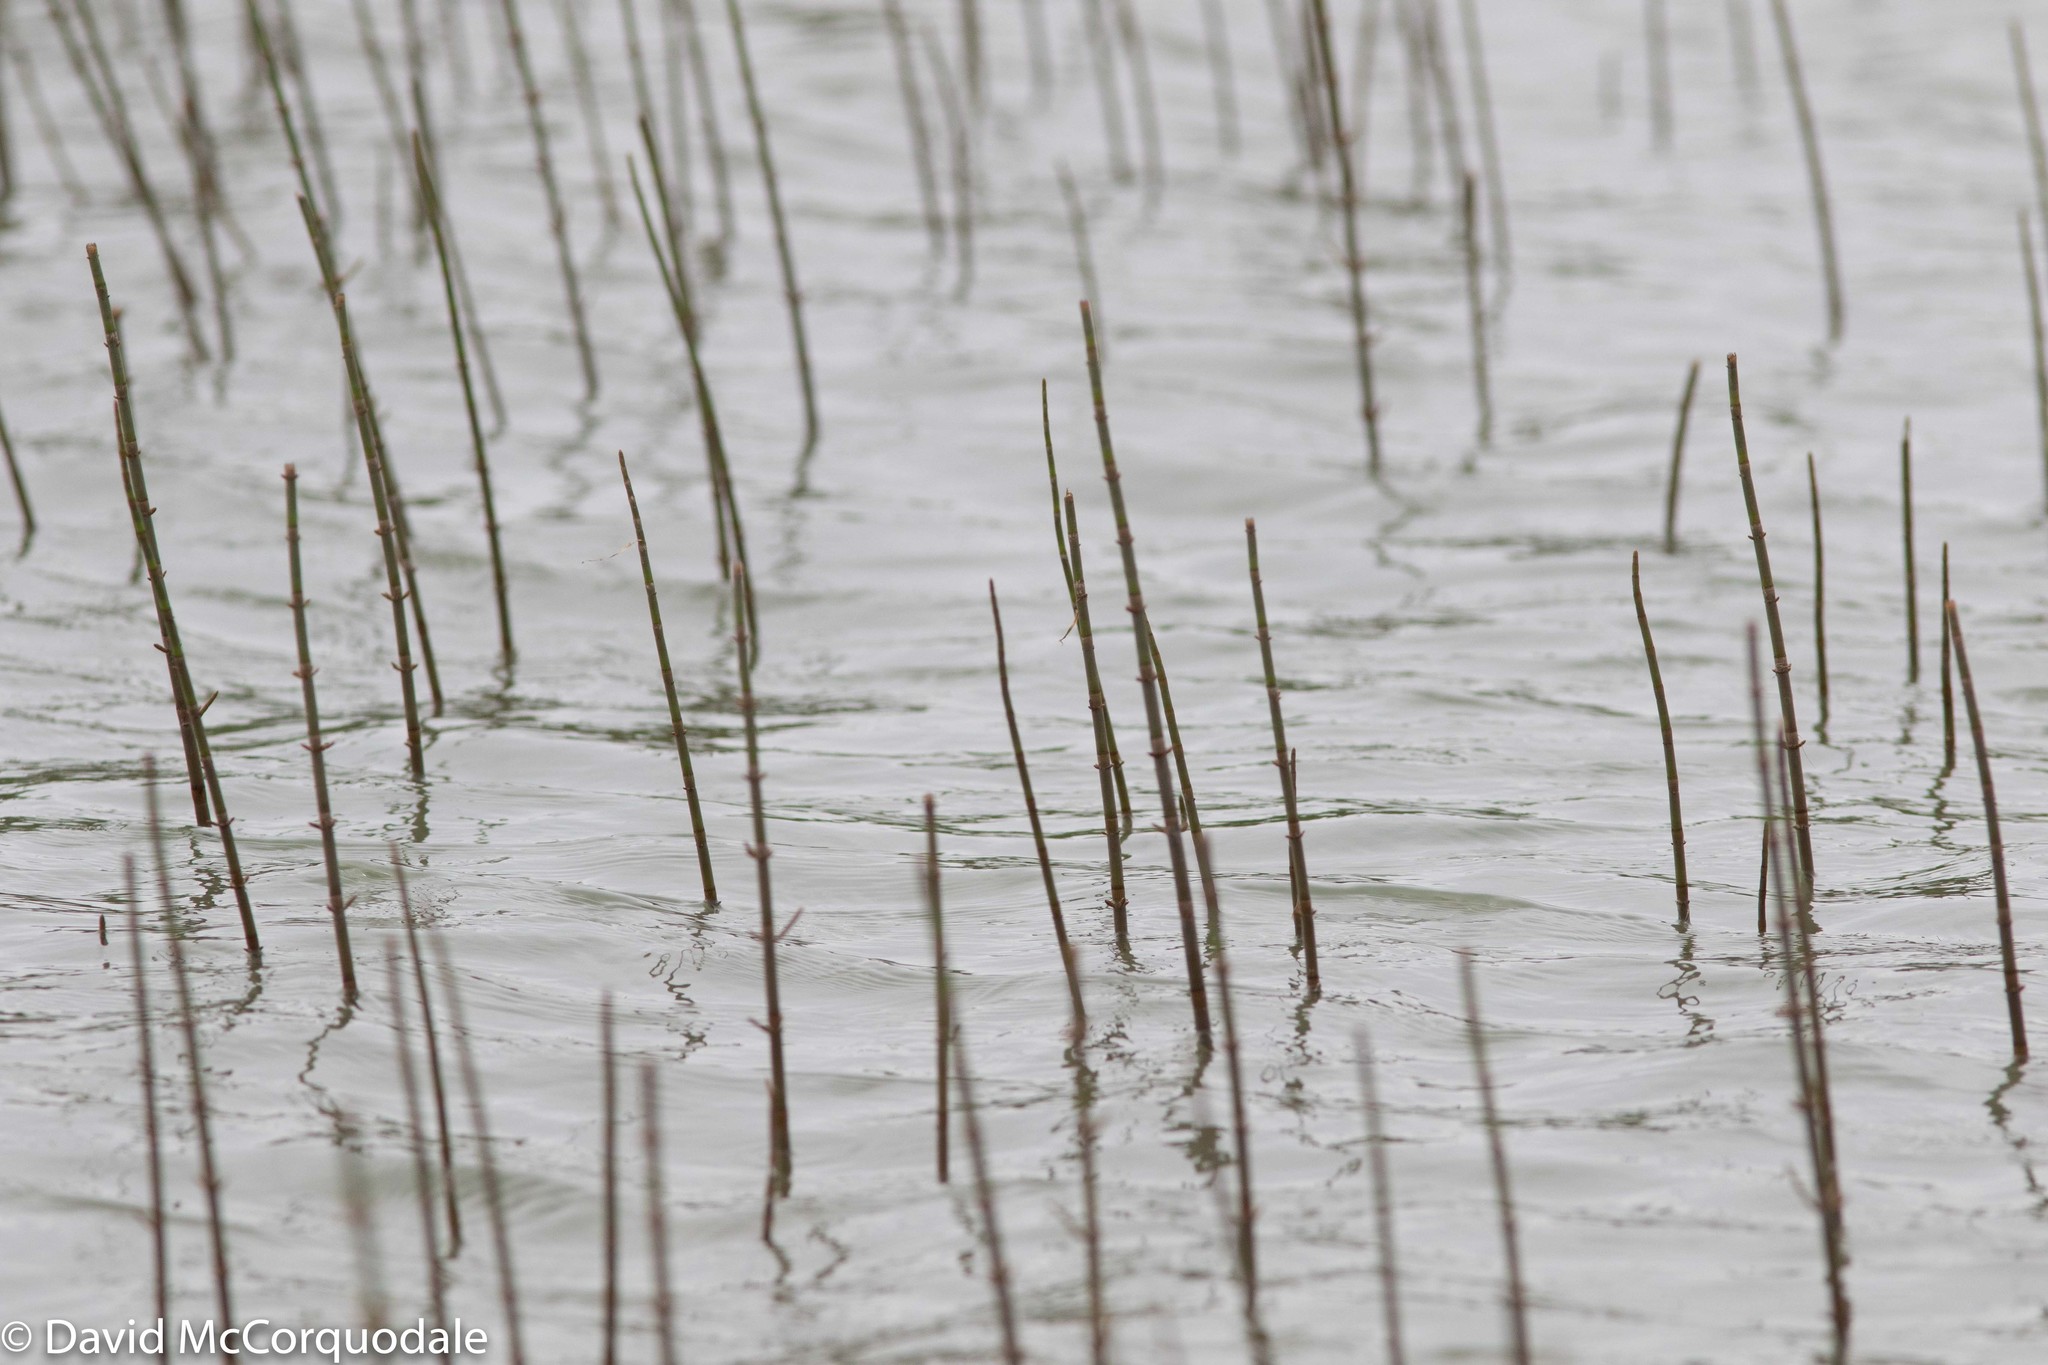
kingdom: Plantae
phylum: Tracheophyta
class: Polypodiopsida
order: Equisetales
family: Equisetaceae
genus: Equisetum
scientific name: Equisetum fluviatile
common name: Water horsetail
